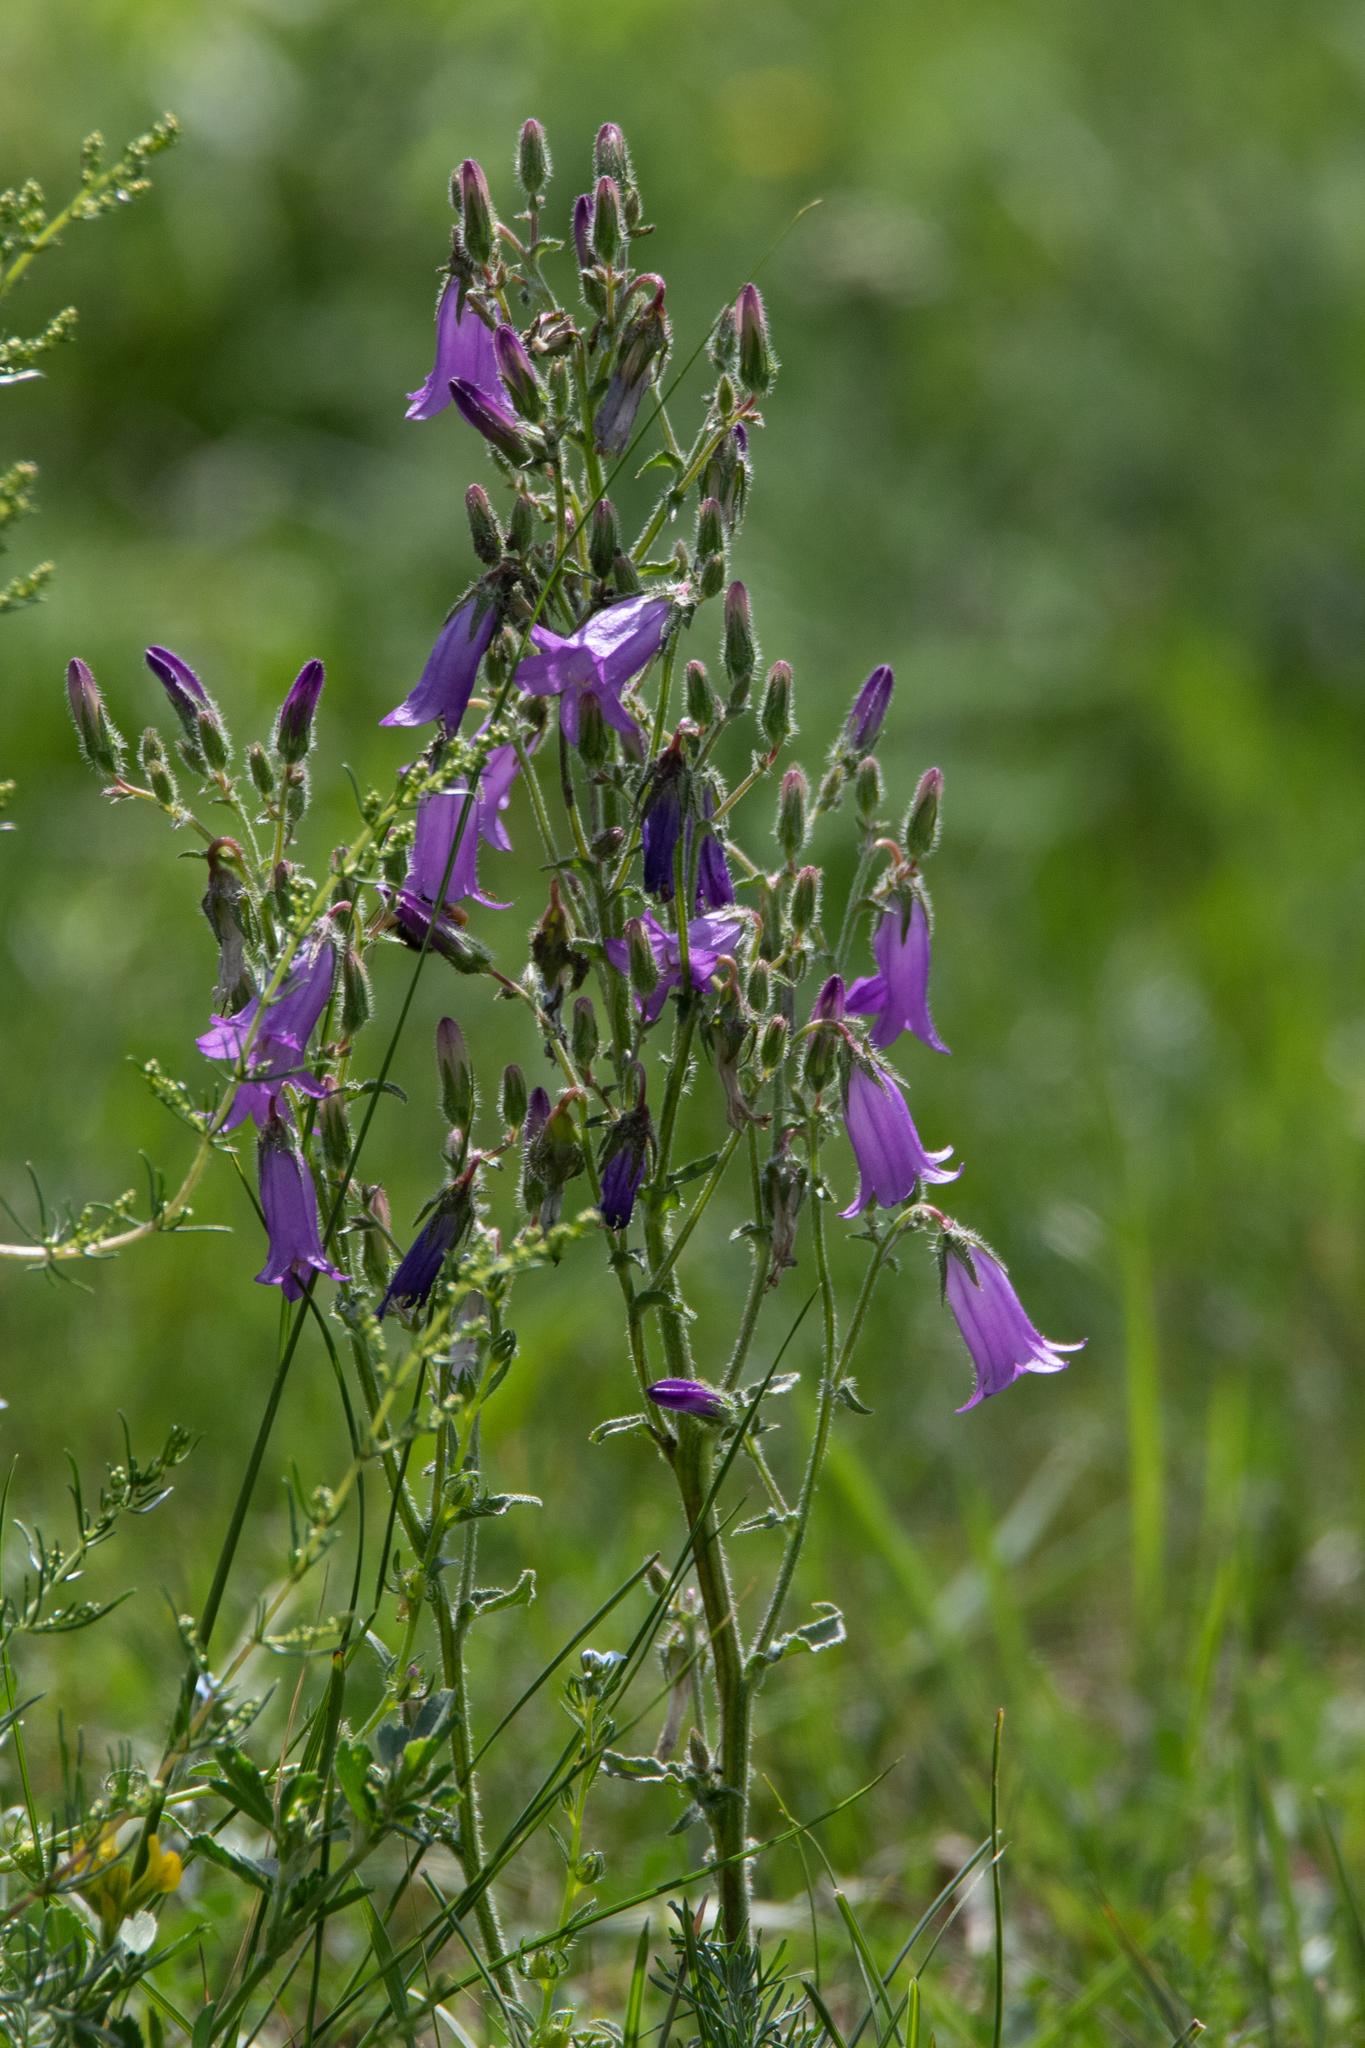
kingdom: Plantae
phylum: Tracheophyta
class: Magnoliopsida
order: Asterales
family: Campanulaceae
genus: Campanula
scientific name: Campanula sibirica
